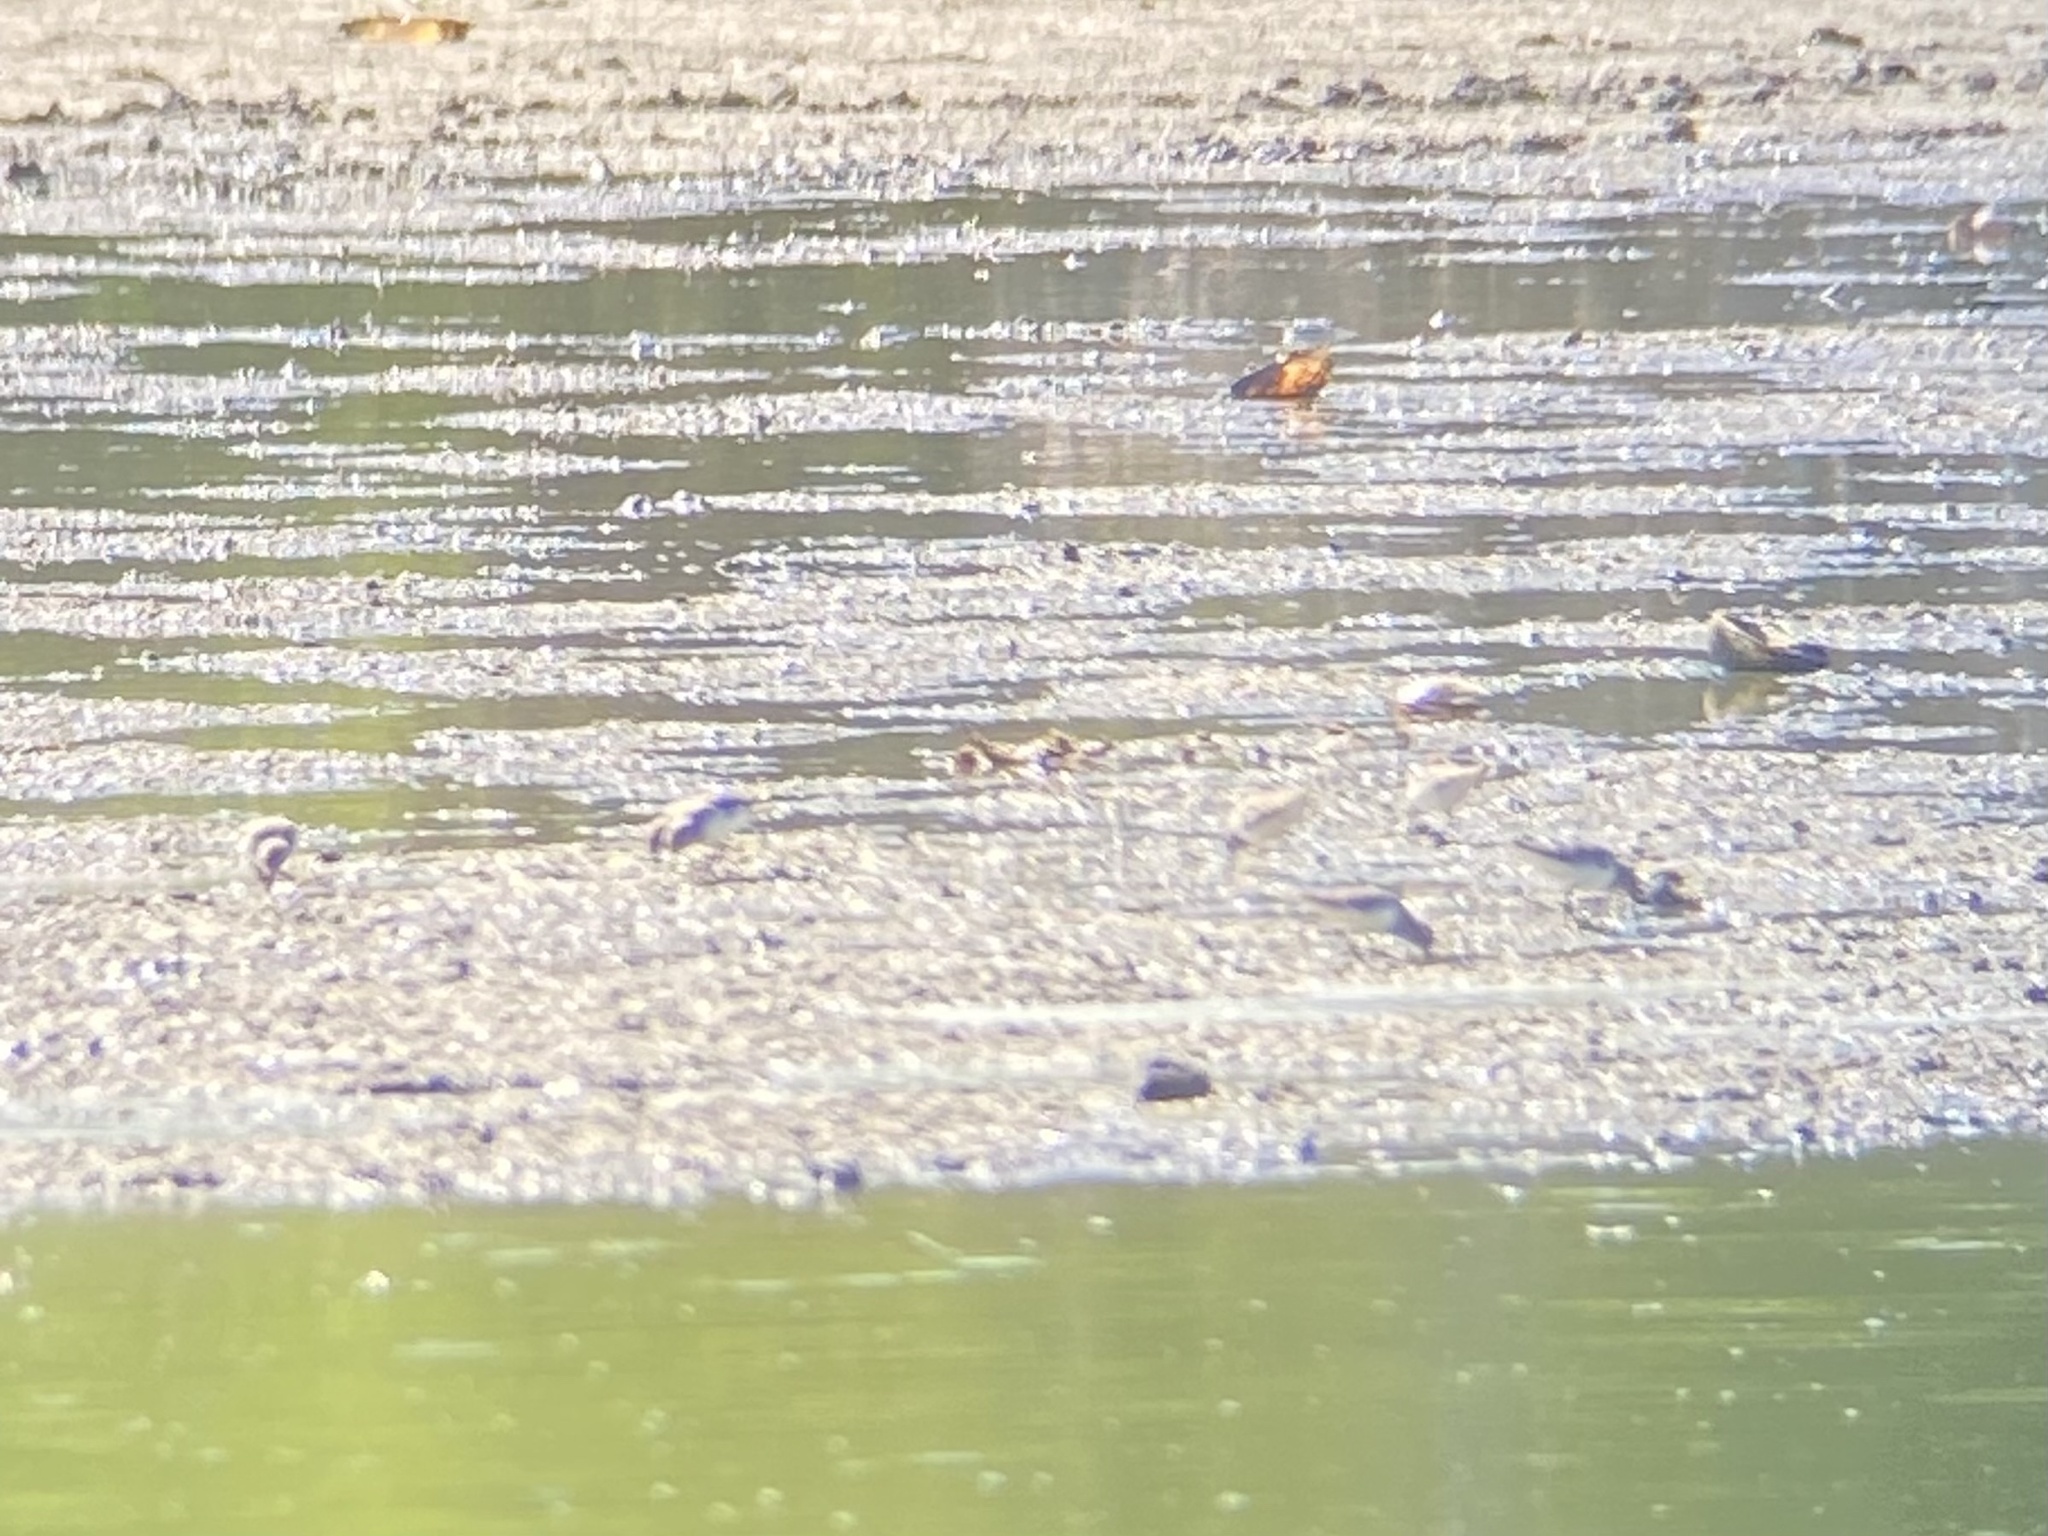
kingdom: Animalia
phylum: Chordata
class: Aves
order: Charadriiformes
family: Scolopacidae
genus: Calidris
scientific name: Calidris minutilla
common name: Least sandpiper
